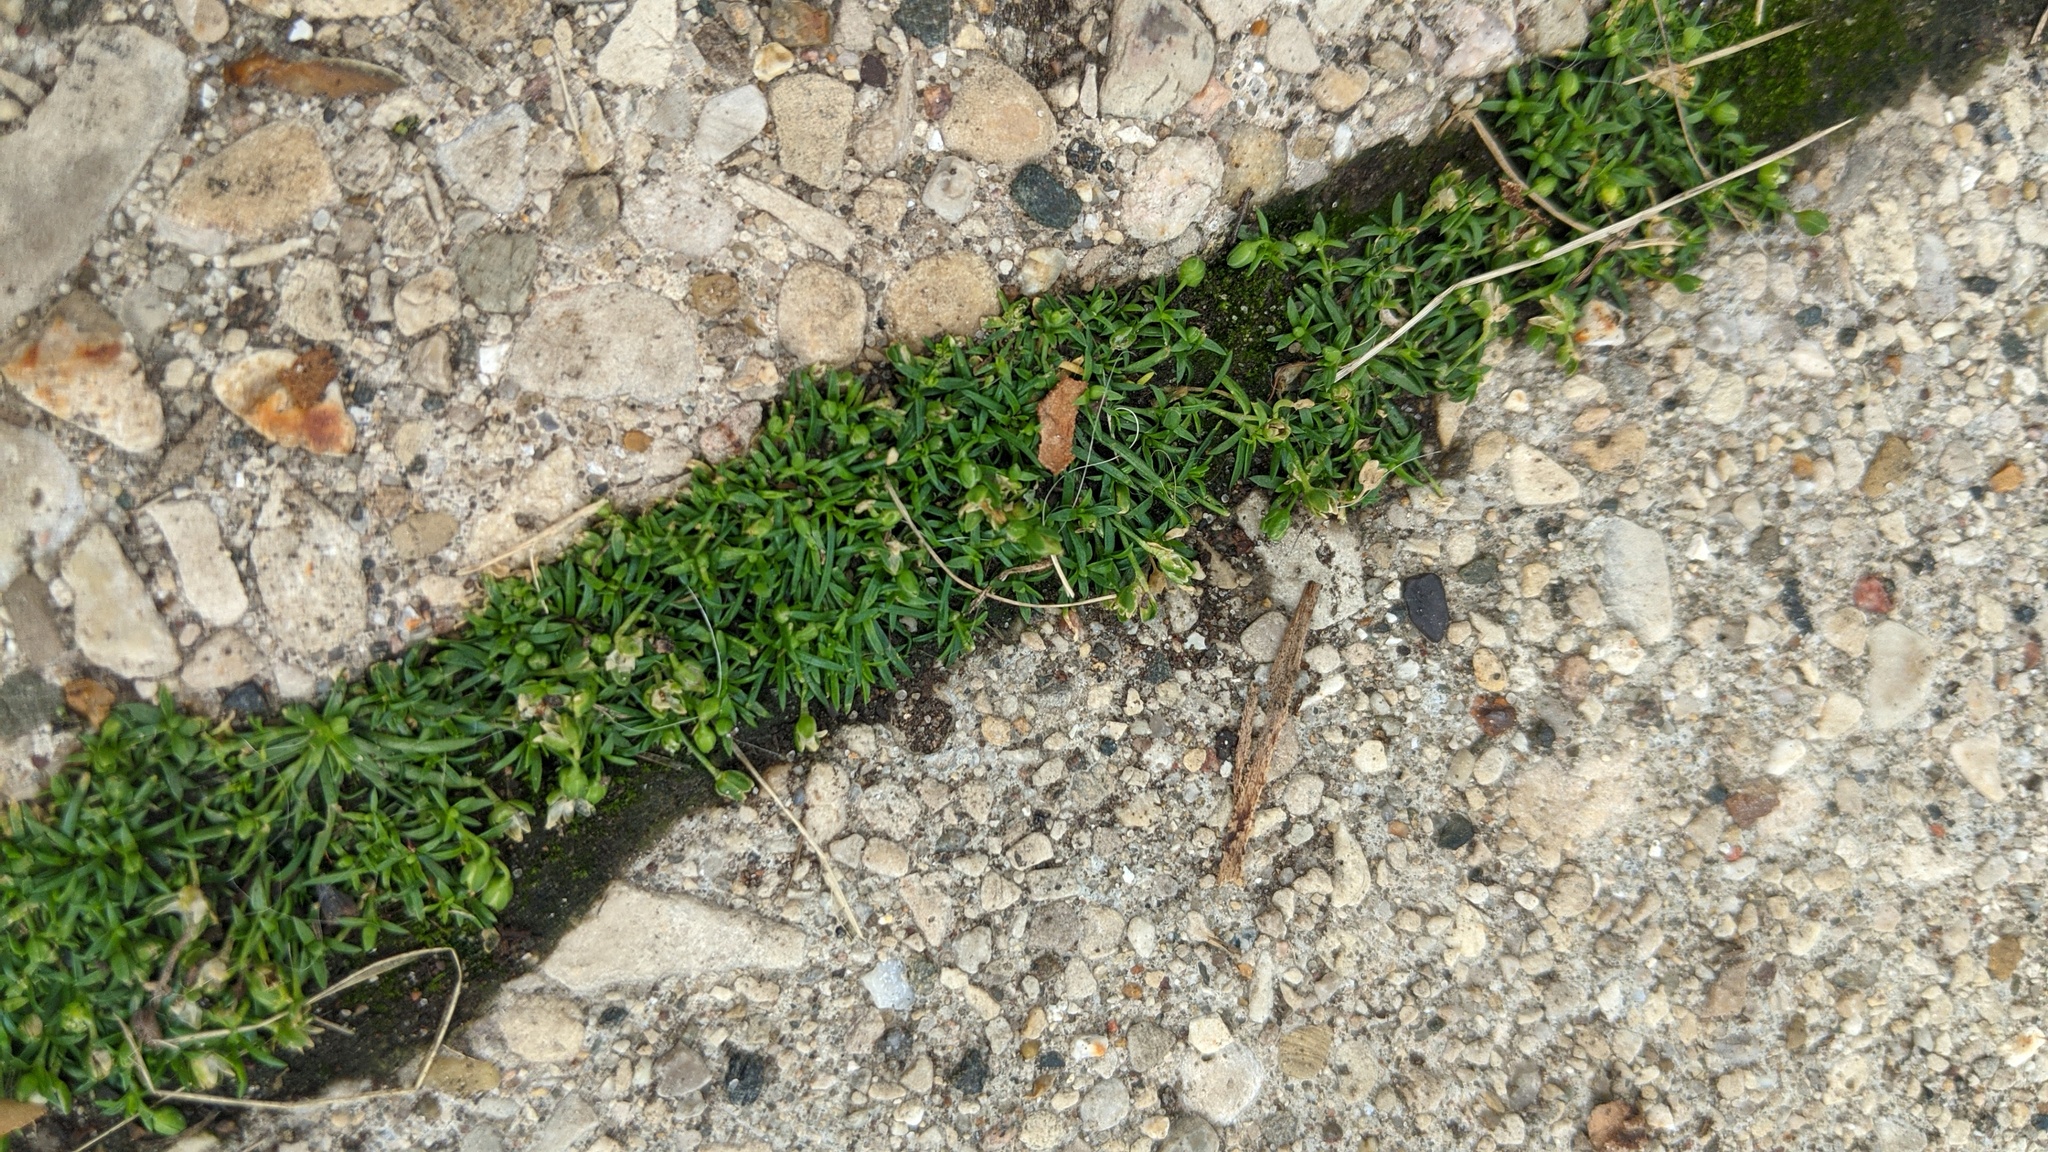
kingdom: Plantae
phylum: Tracheophyta
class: Magnoliopsida
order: Caryophyllales
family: Caryophyllaceae
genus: Sagina
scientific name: Sagina procumbens
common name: Procumbent pearlwort
